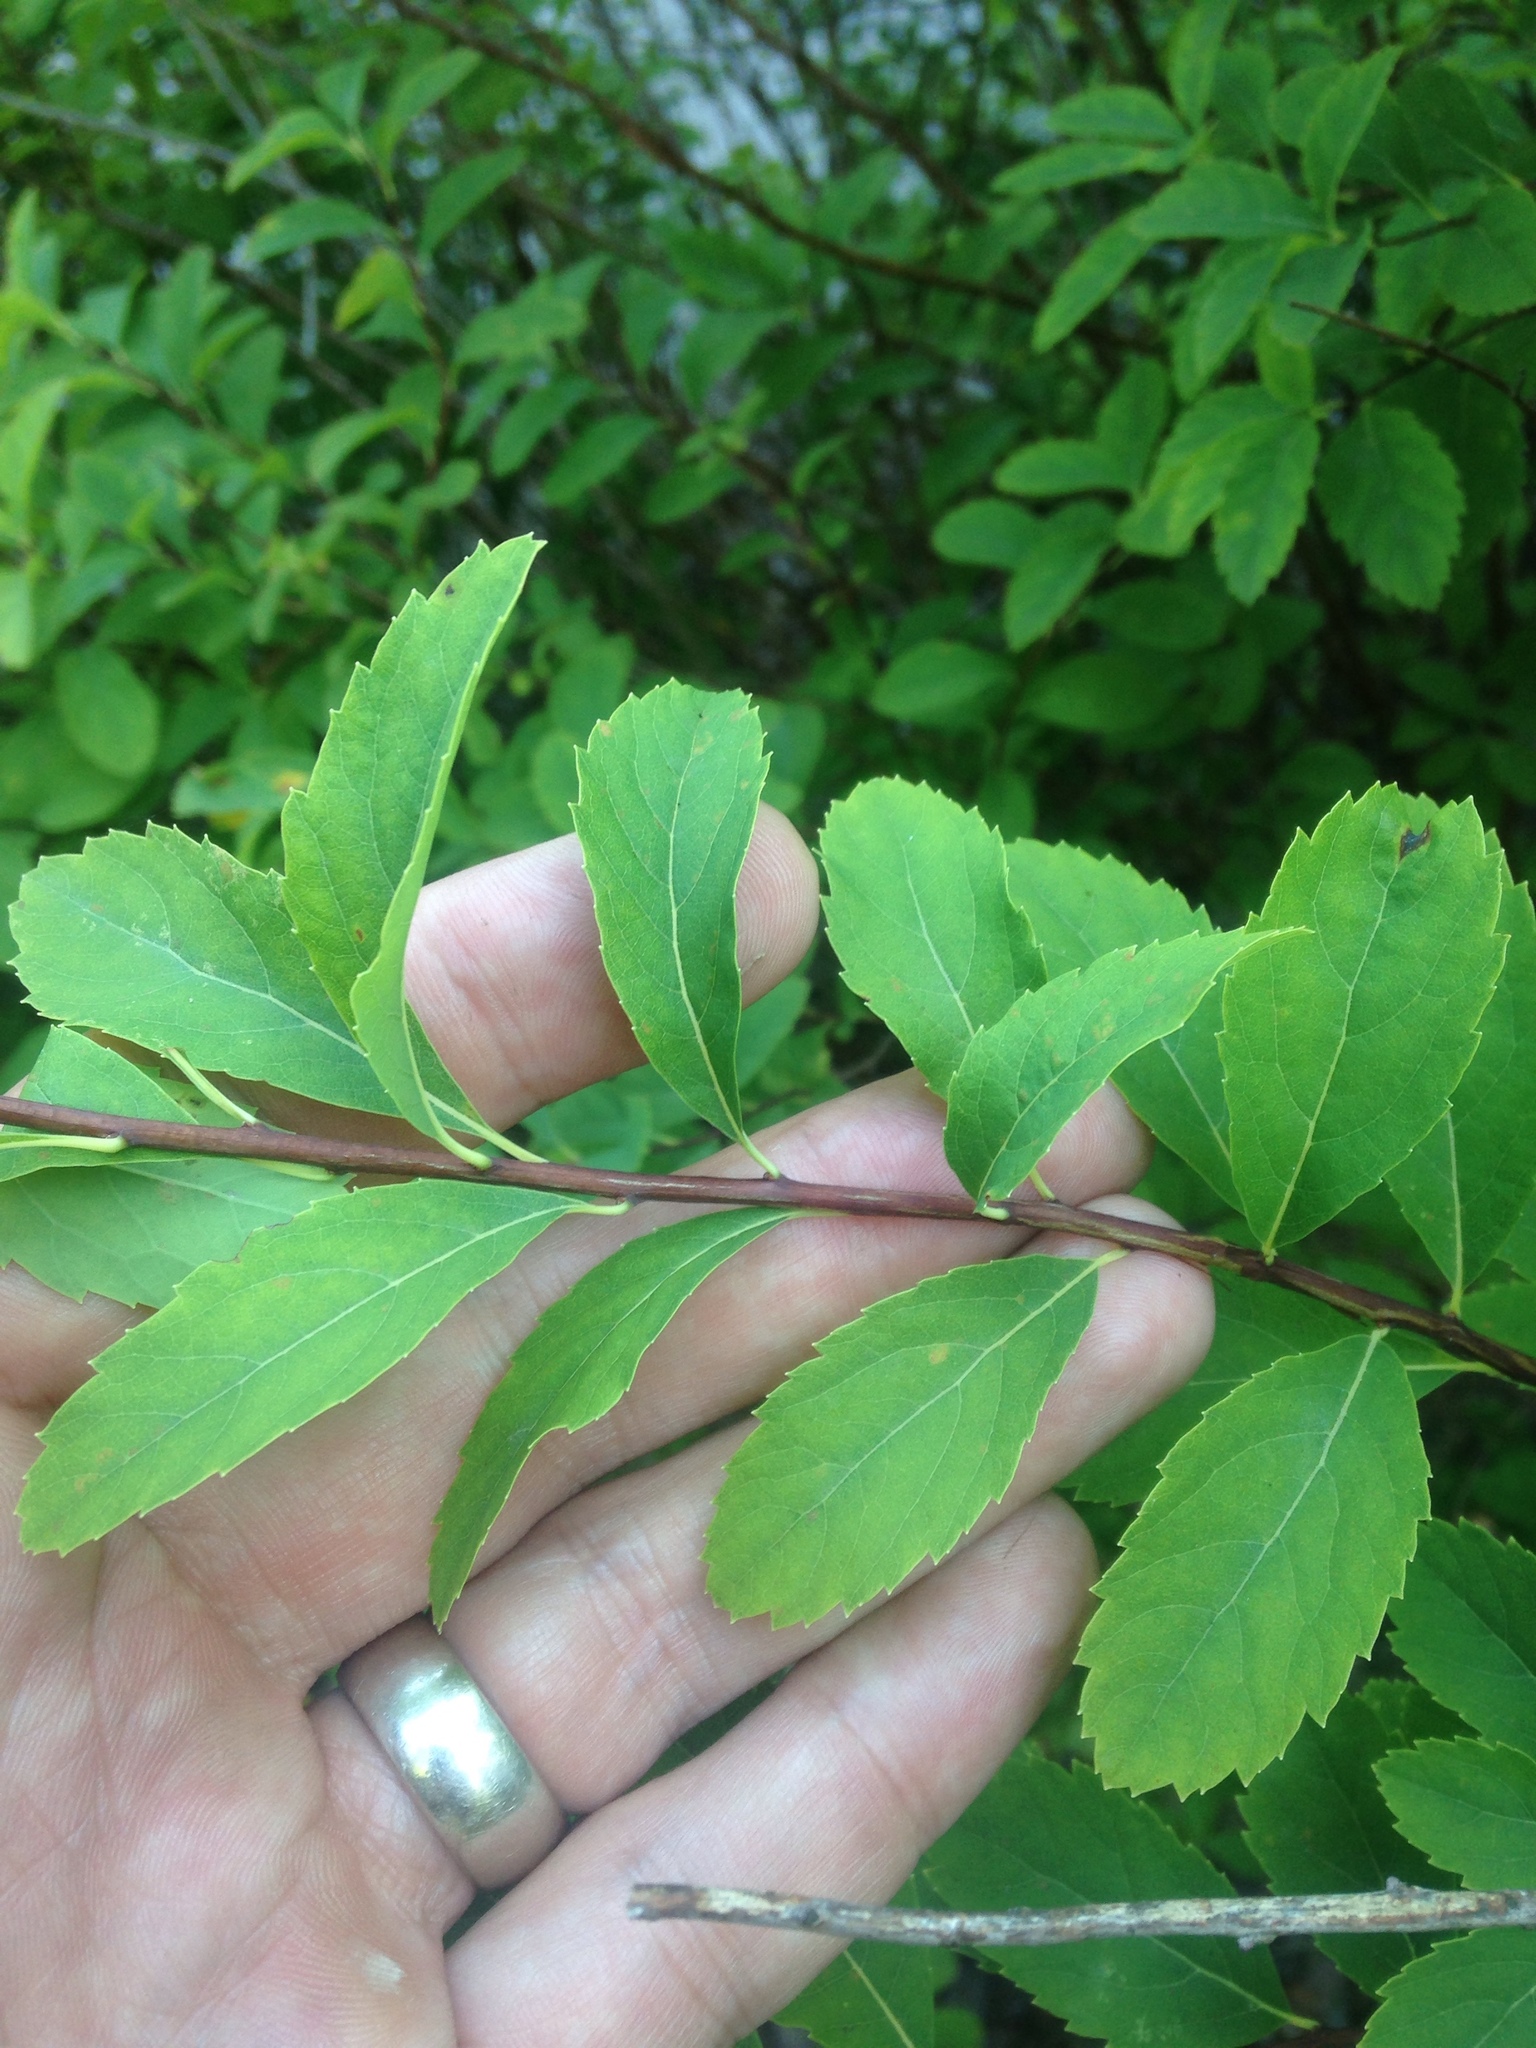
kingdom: Plantae
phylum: Tracheophyta
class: Magnoliopsida
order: Rosales
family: Rosaceae
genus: Spiraea
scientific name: Spiraea alba
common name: Pale bridewort
